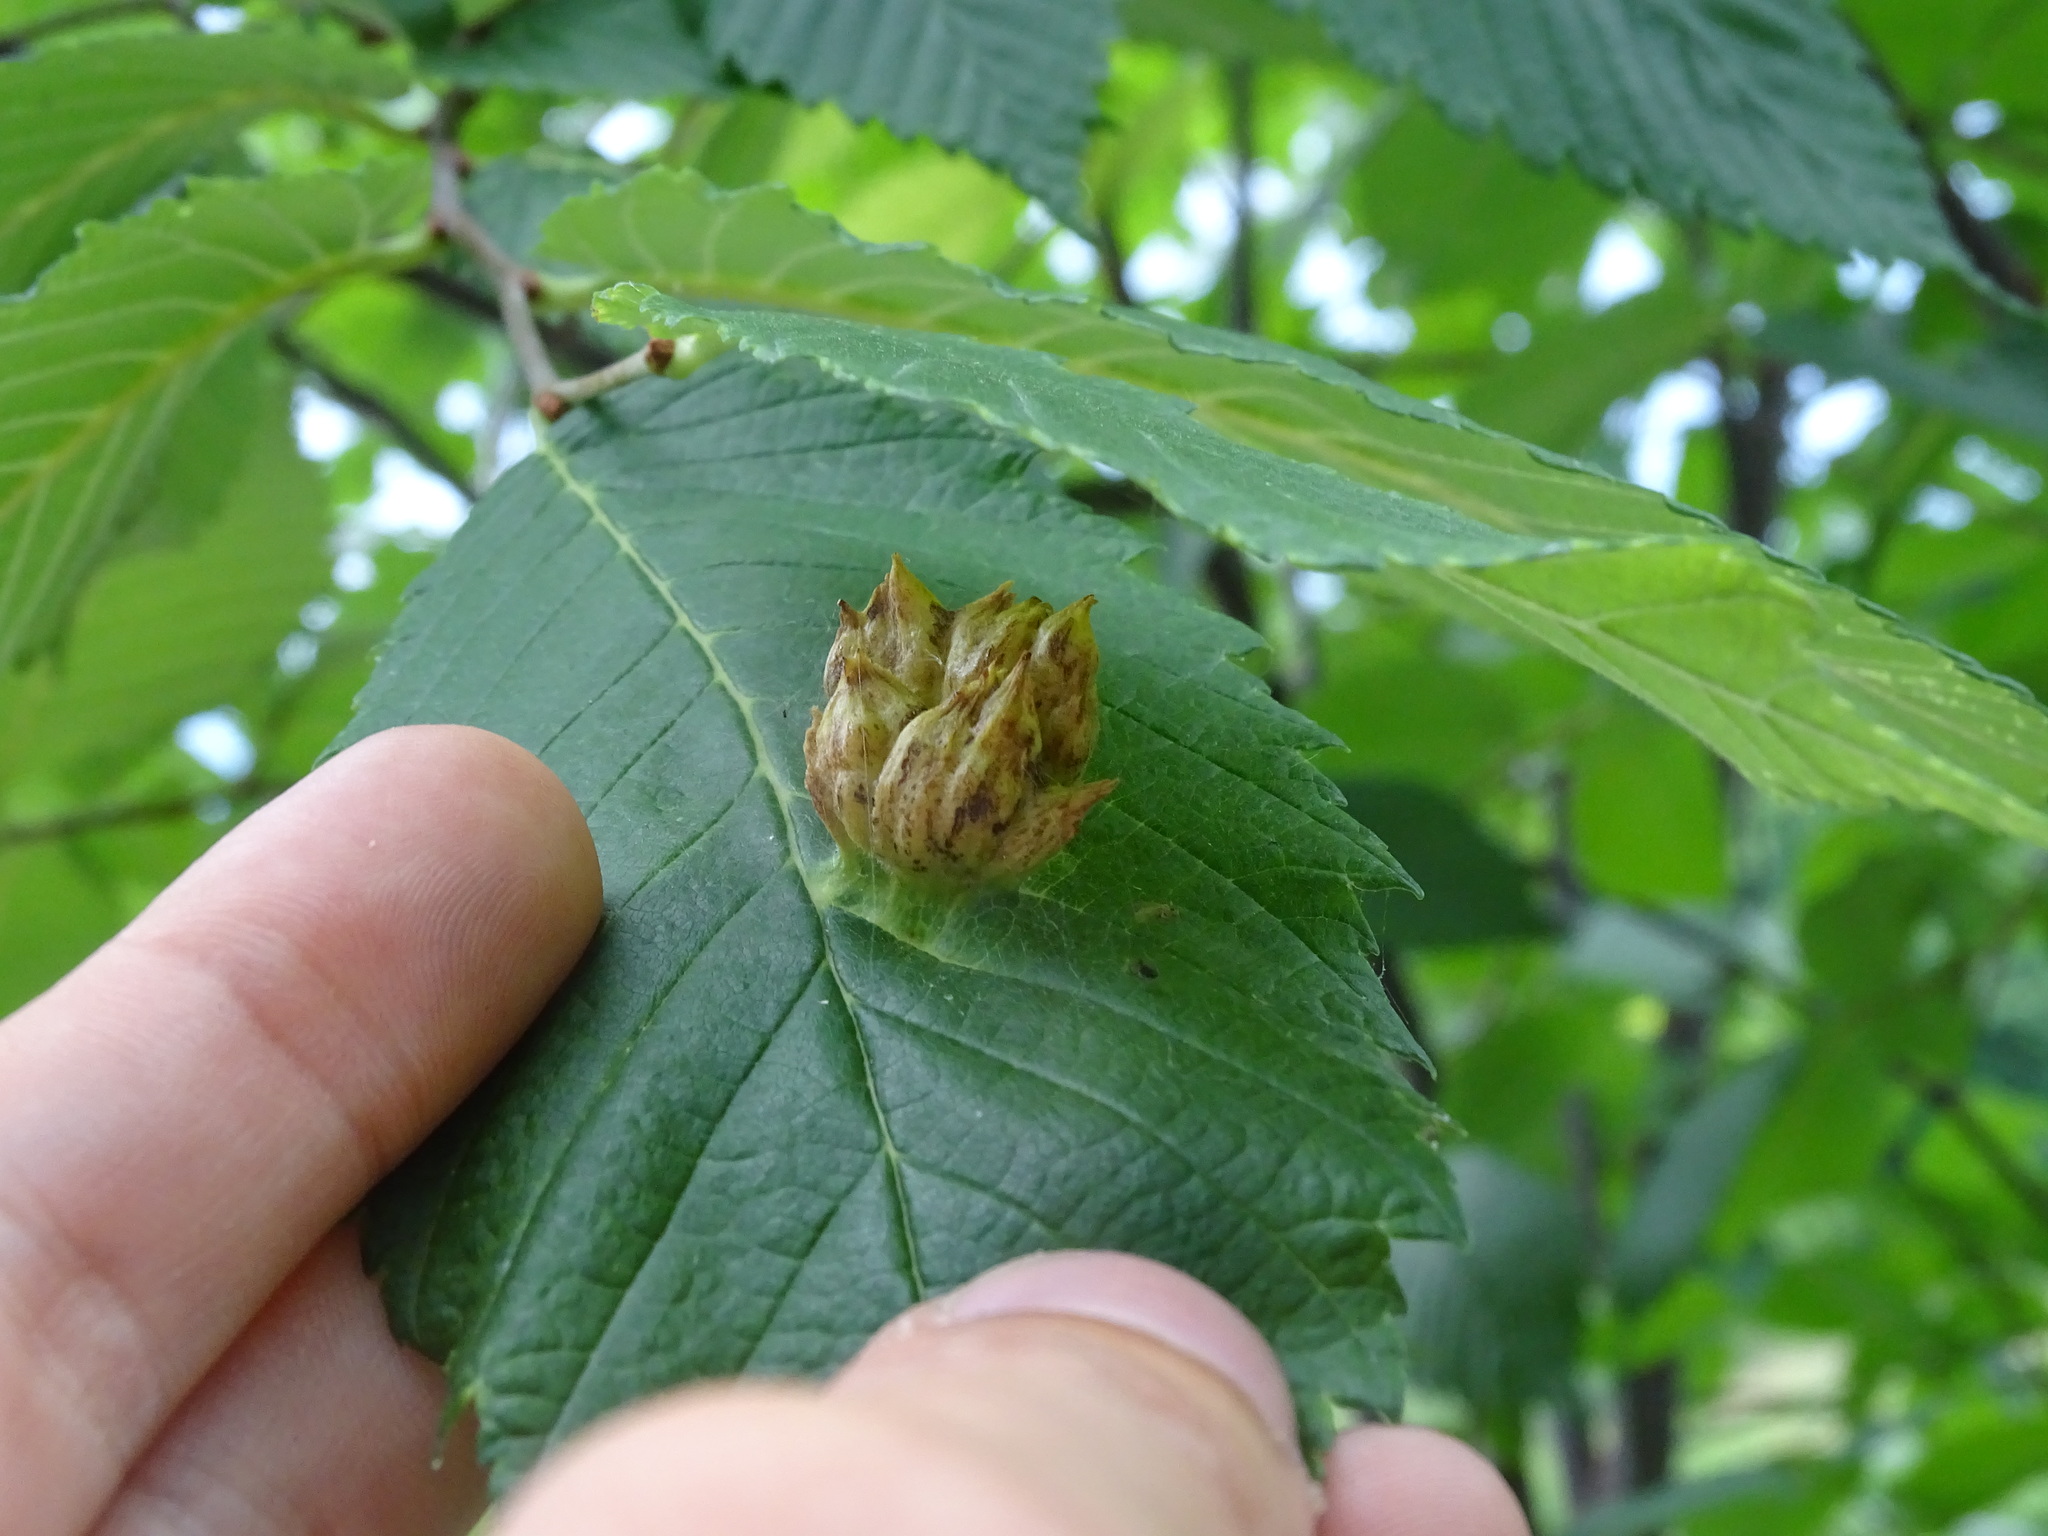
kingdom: Animalia
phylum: Arthropoda
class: Insecta
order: Hemiptera
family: Aphididae
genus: Colopha
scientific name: Colopha ulmicola
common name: Elm cockscombgall aphid
